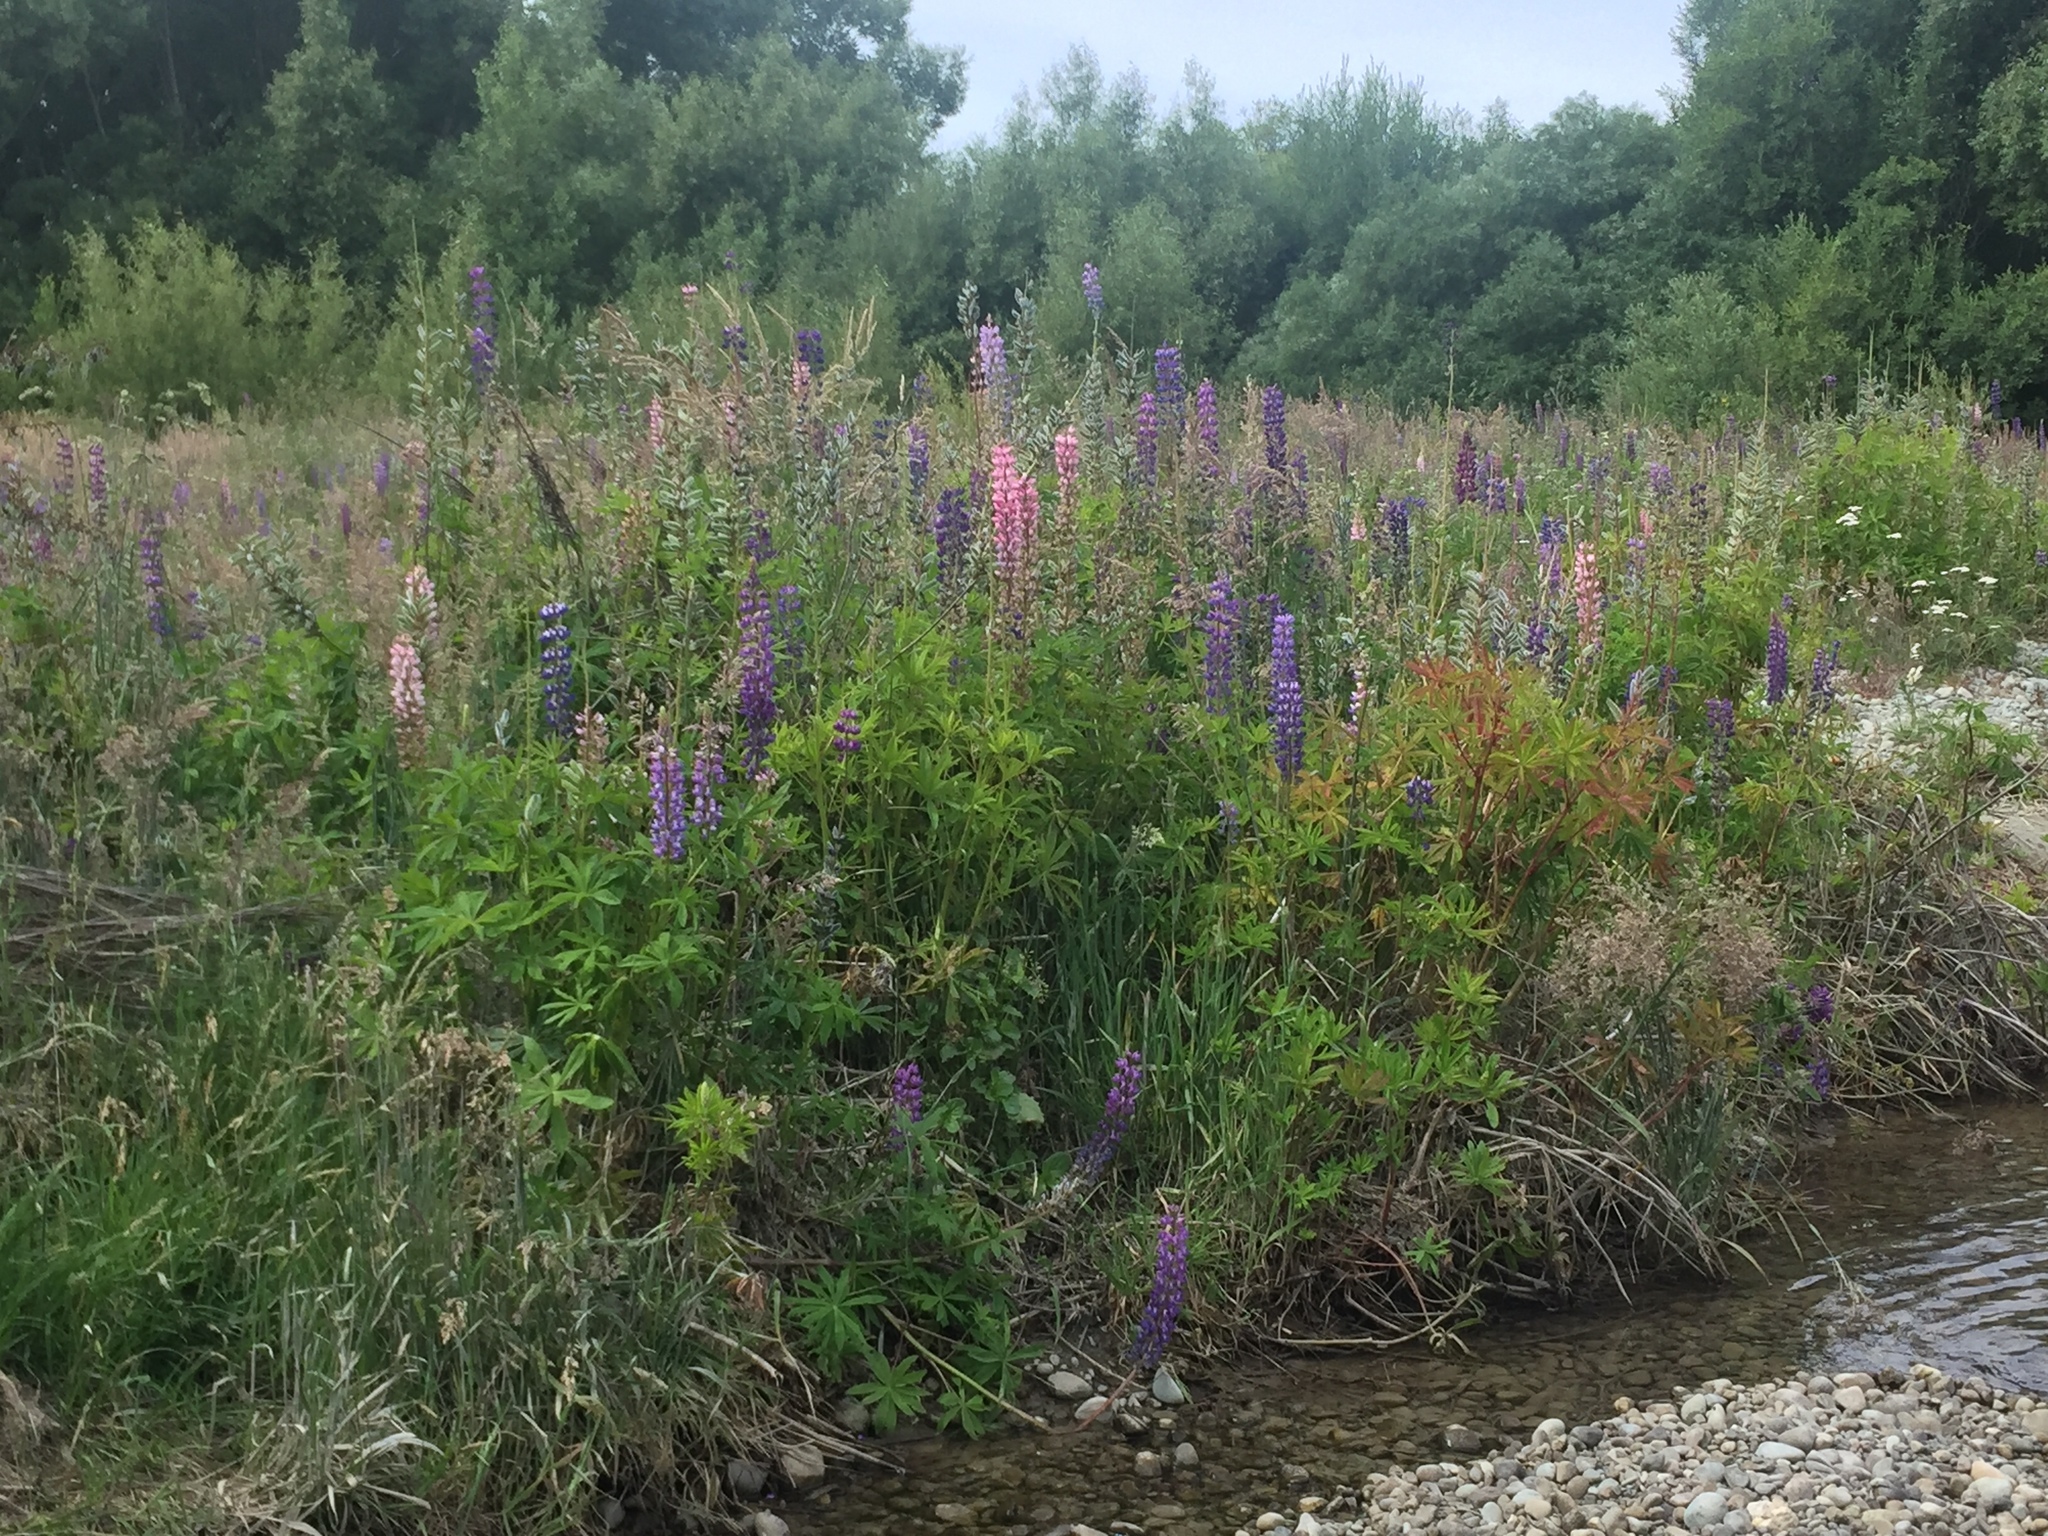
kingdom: Plantae
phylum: Tracheophyta
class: Magnoliopsida
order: Fabales
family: Fabaceae
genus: Lupinus
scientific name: Lupinus polyphyllus
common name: Garden lupin
